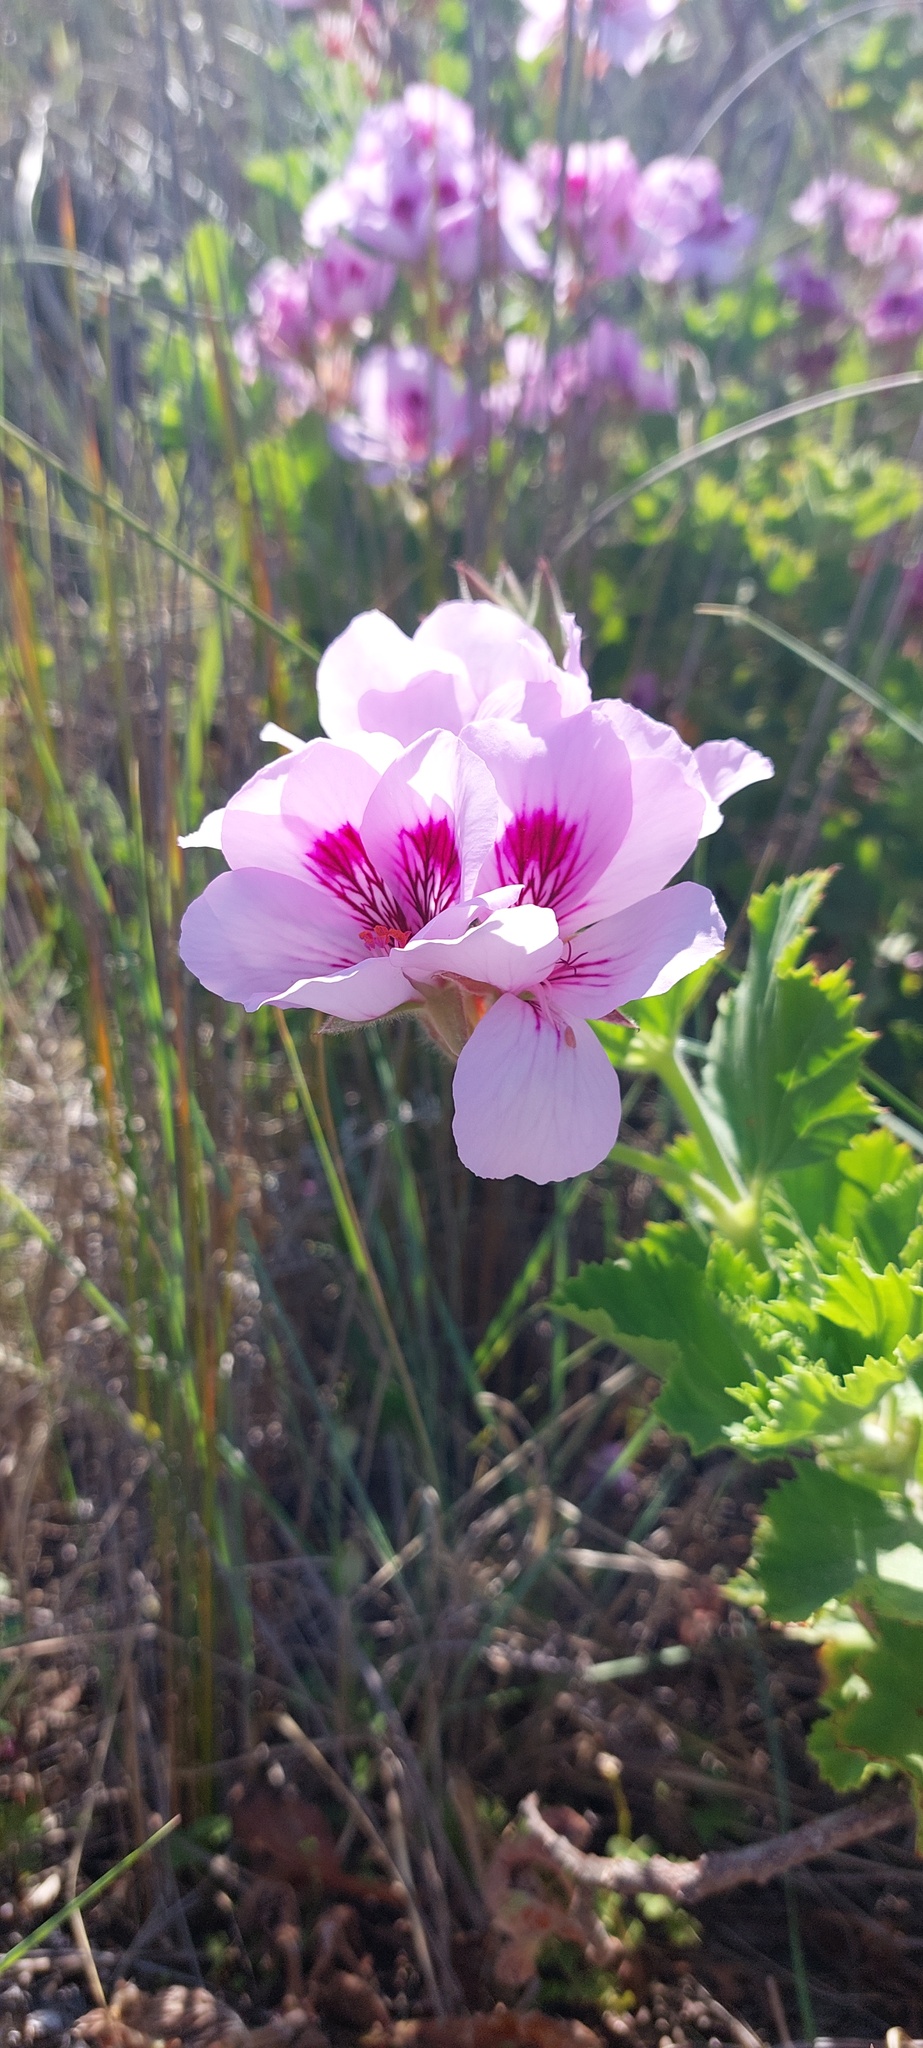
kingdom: Plantae
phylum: Tracheophyta
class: Magnoliopsida
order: Geraniales
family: Geraniaceae
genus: Pelargonium
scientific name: Pelargonium cucullatum
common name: Tree pelargonium
